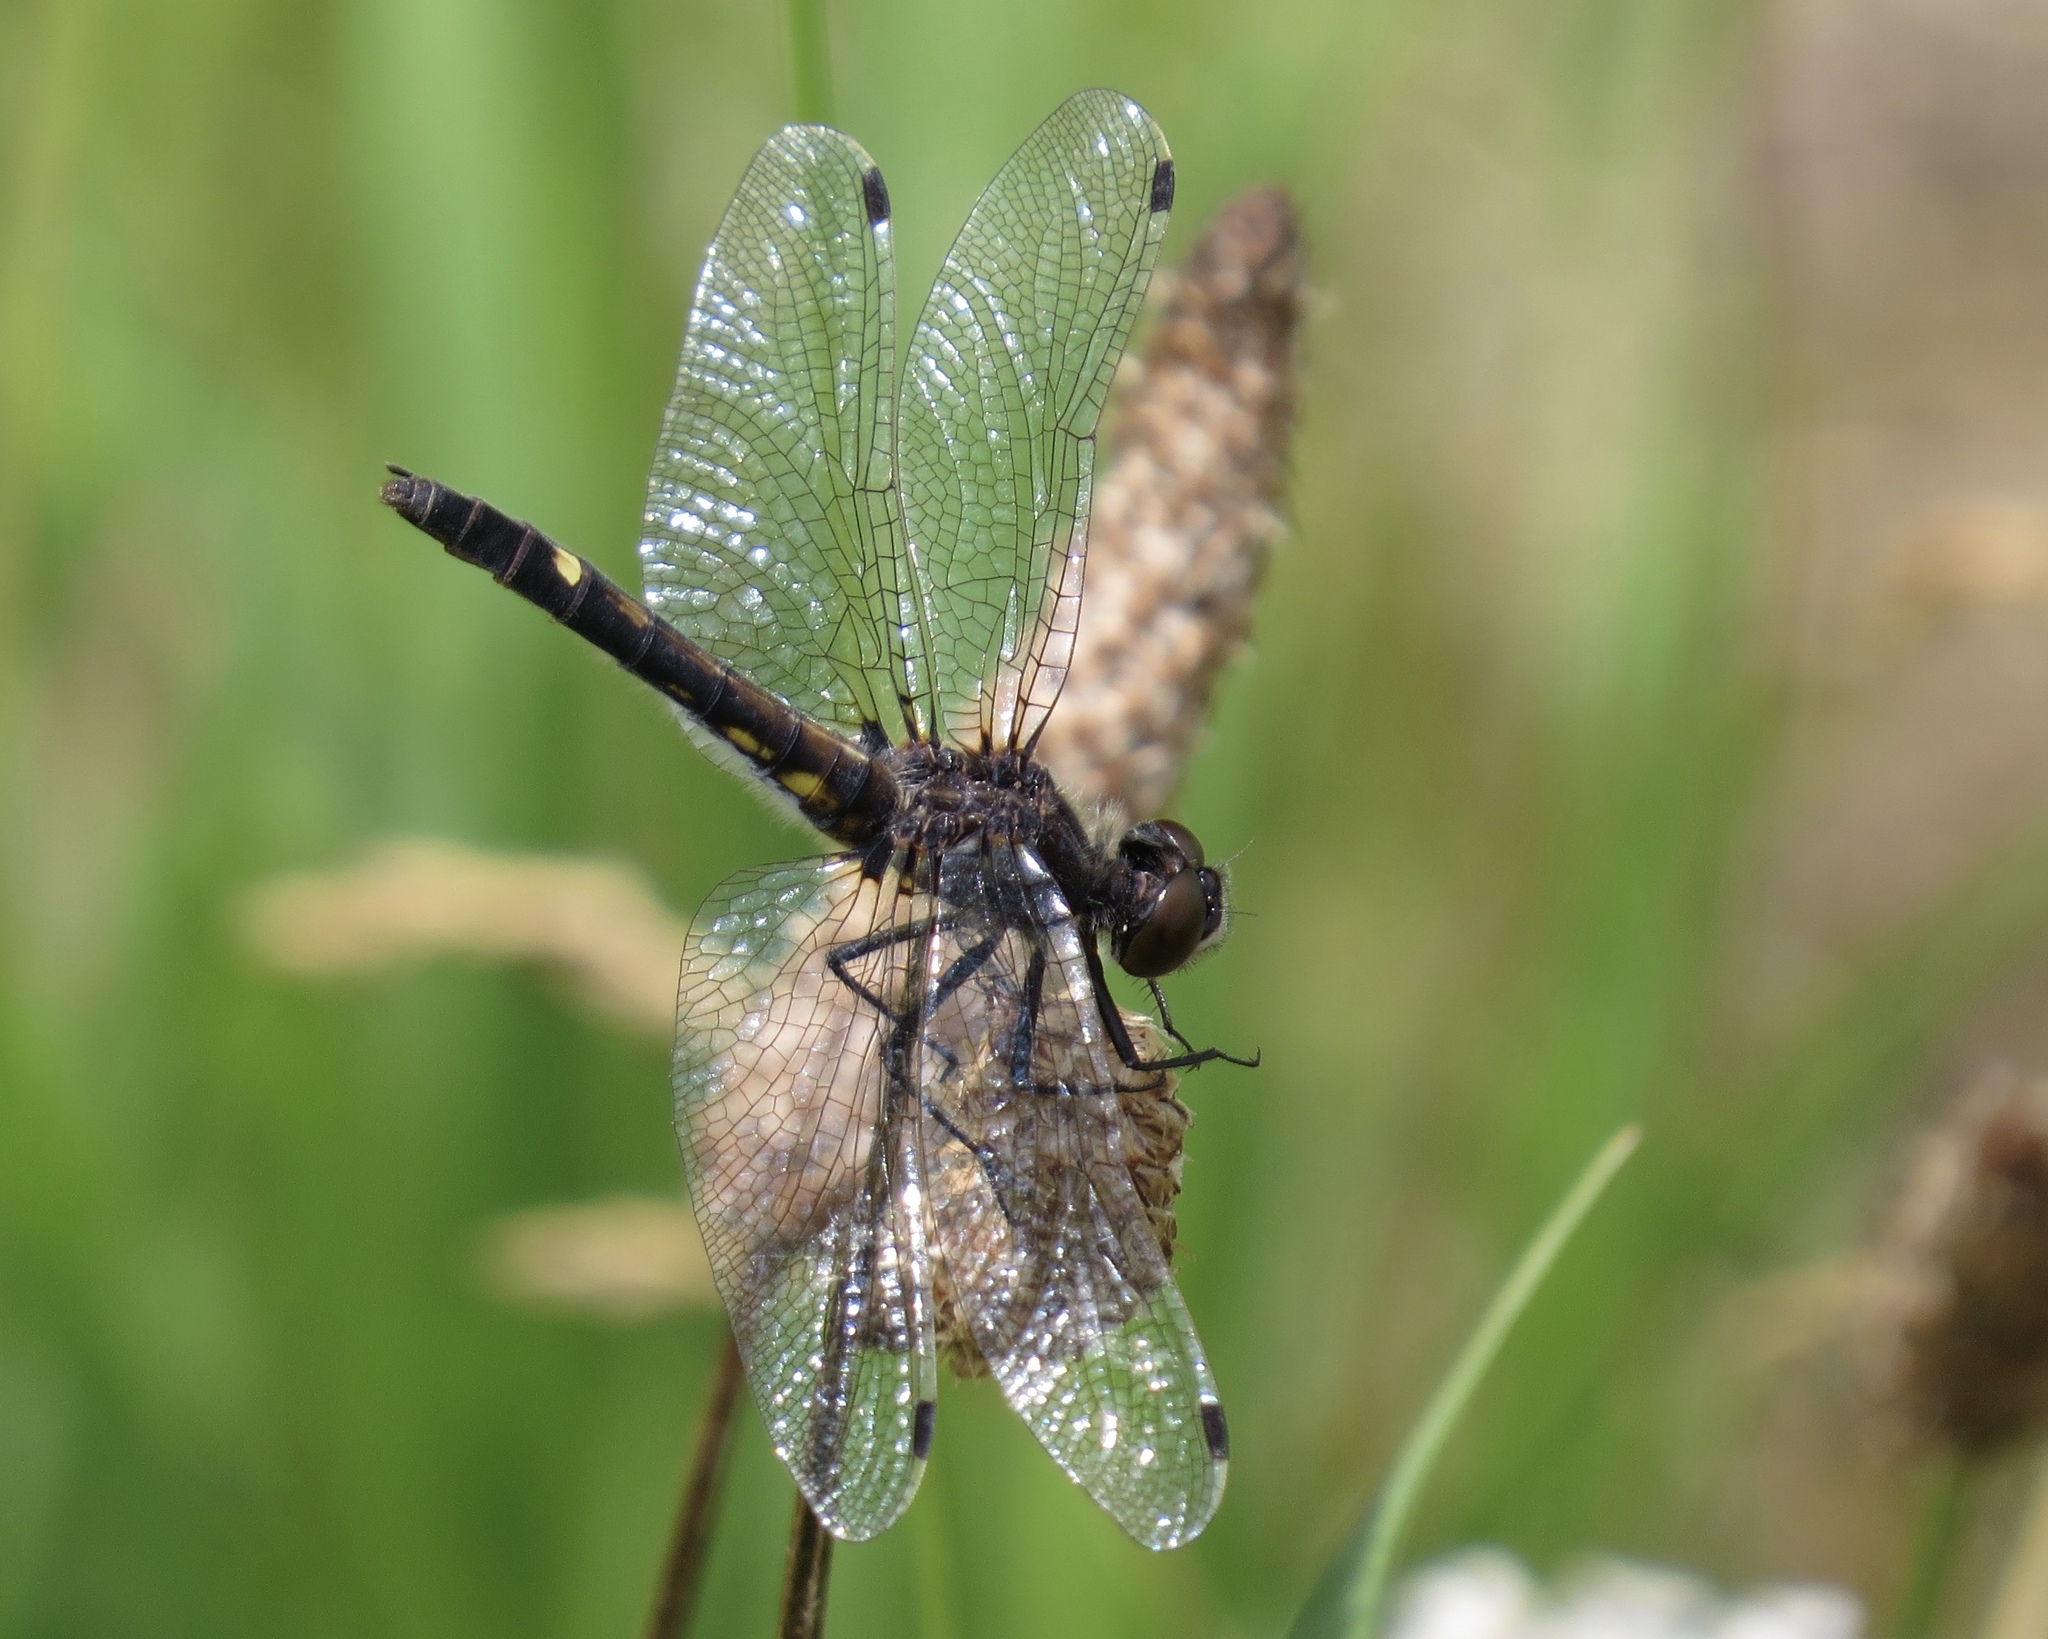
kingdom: Animalia
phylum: Arthropoda
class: Insecta
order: Odonata
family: Libellulidae
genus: Leucorrhinia
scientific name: Leucorrhinia intacta
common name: Dot-tailed whiteface
